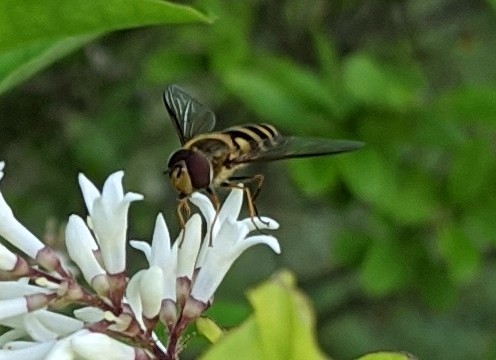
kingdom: Animalia
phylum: Arthropoda
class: Insecta
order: Diptera
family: Syrphidae
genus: Syrphus
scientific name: Syrphus
